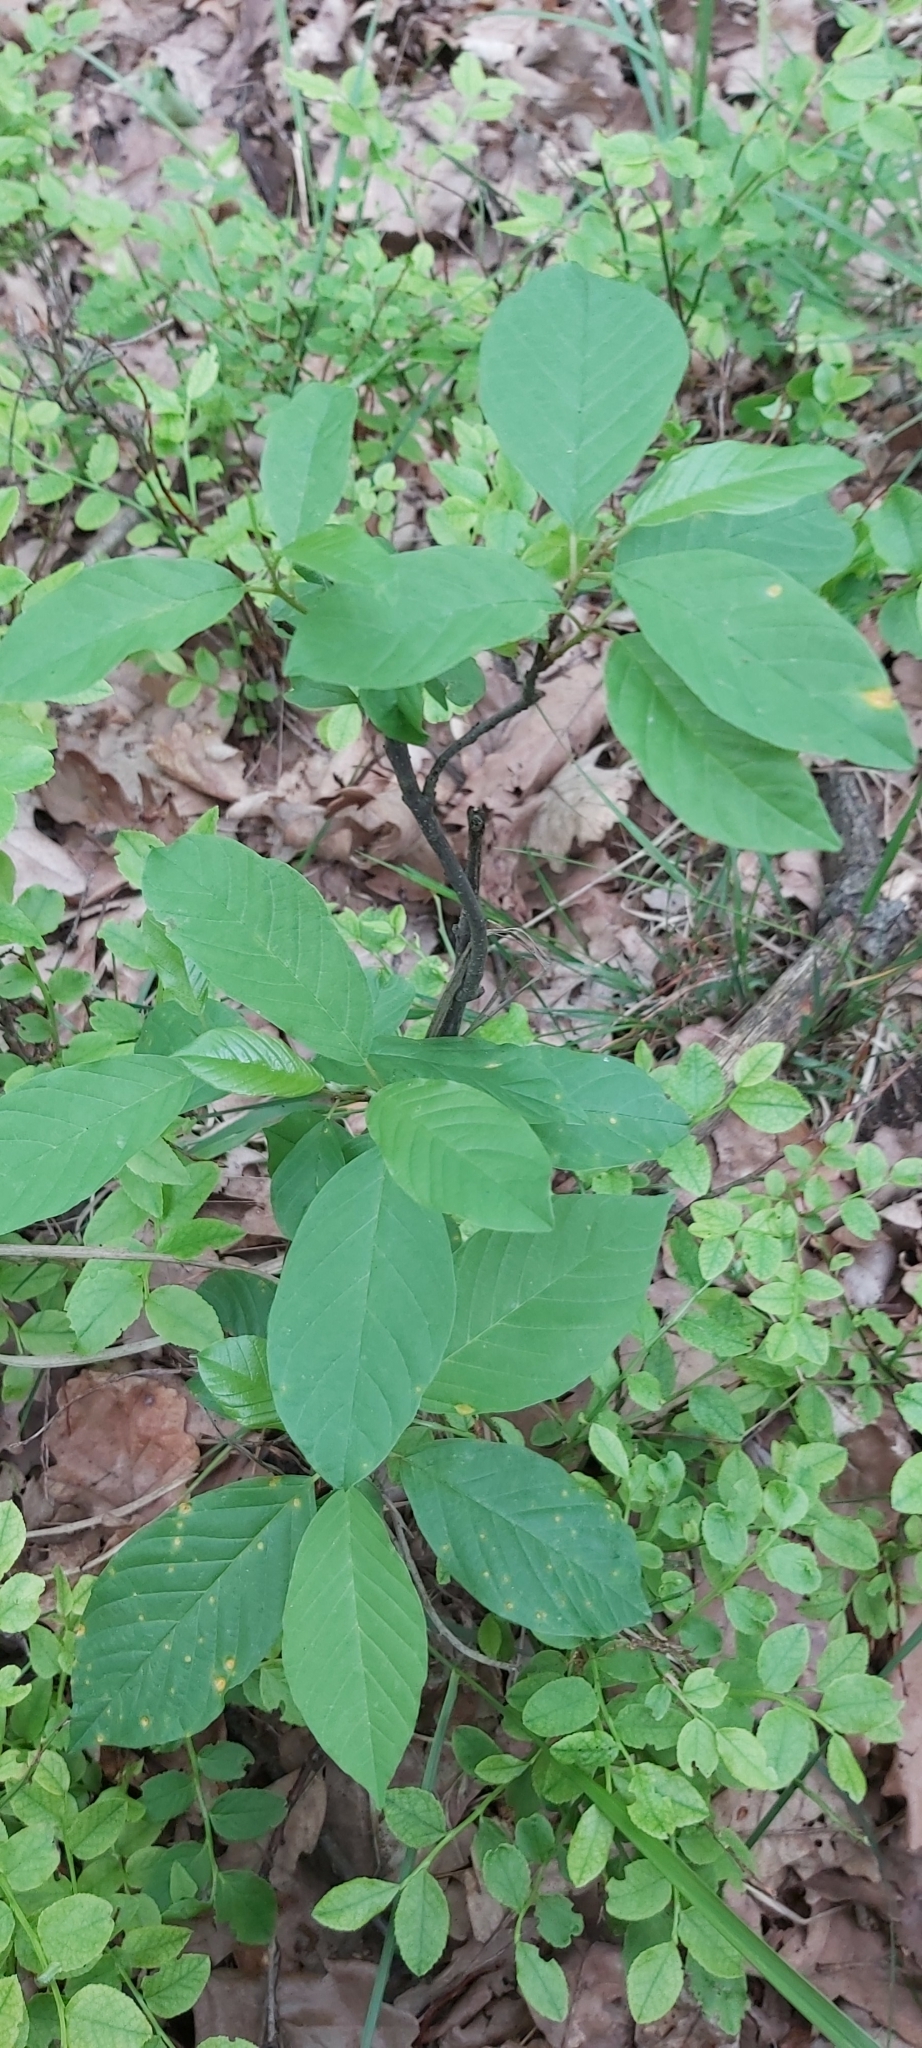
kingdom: Plantae
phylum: Tracheophyta
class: Magnoliopsida
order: Rosales
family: Rhamnaceae
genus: Frangula
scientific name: Frangula alnus
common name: Alder buckthorn
